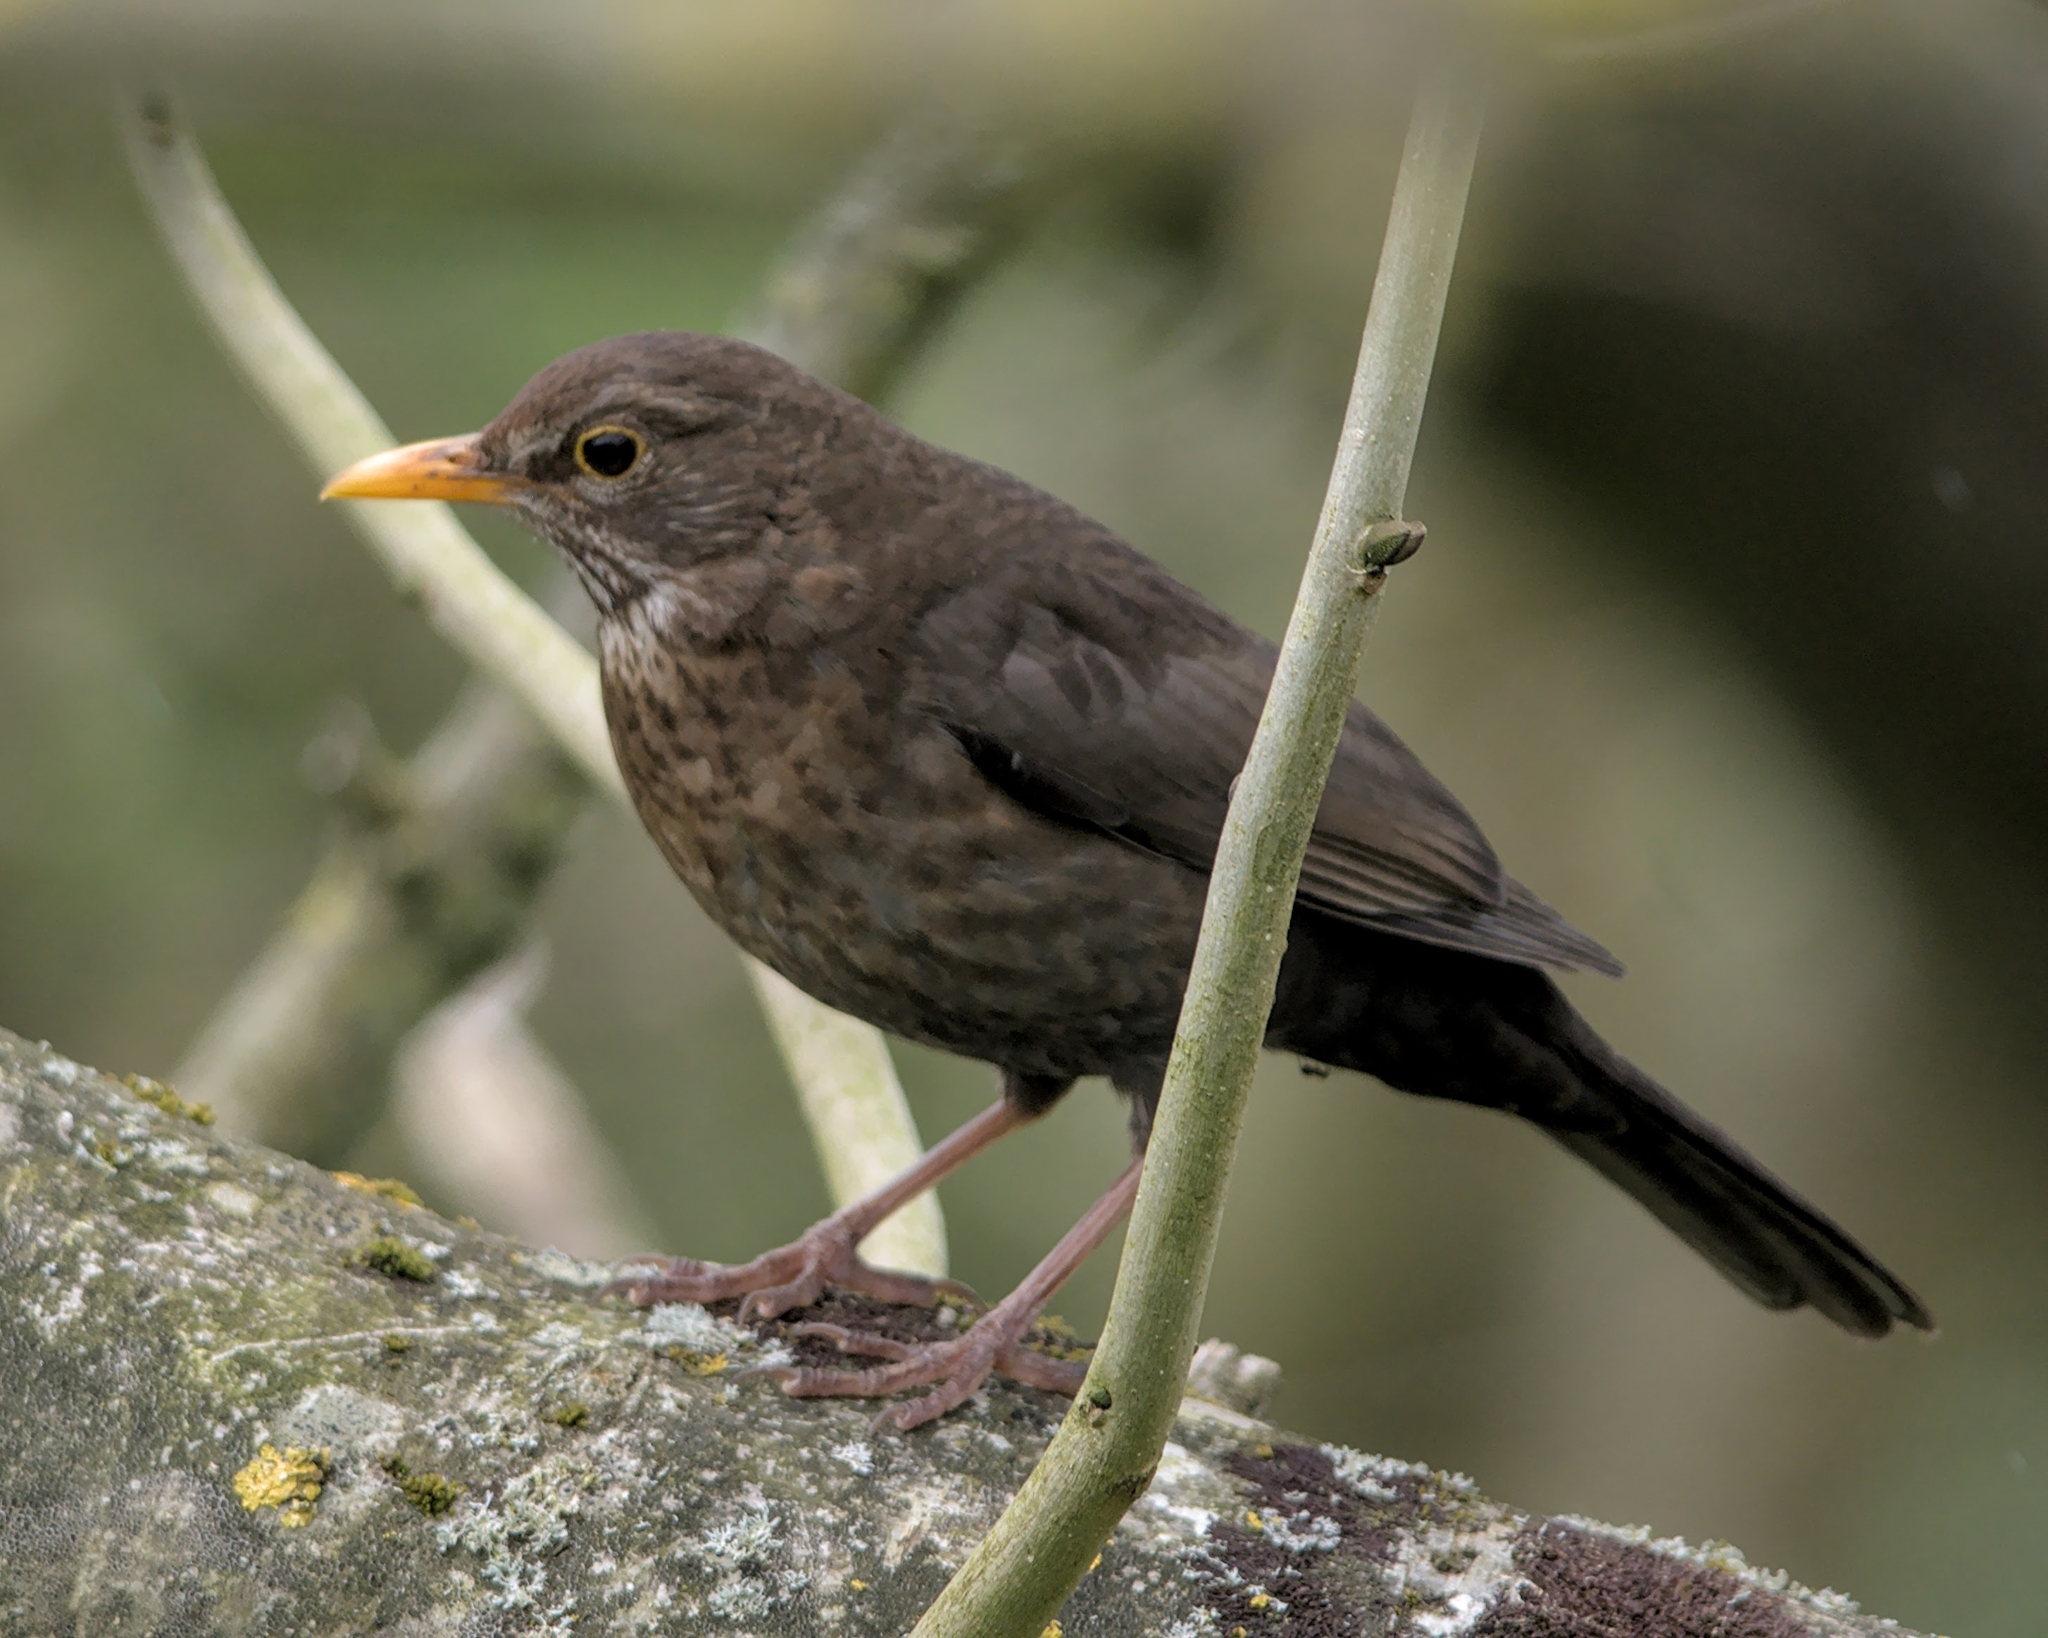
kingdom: Animalia
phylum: Chordata
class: Aves
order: Passeriformes
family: Turdidae
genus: Turdus
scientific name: Turdus merula
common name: Common blackbird
